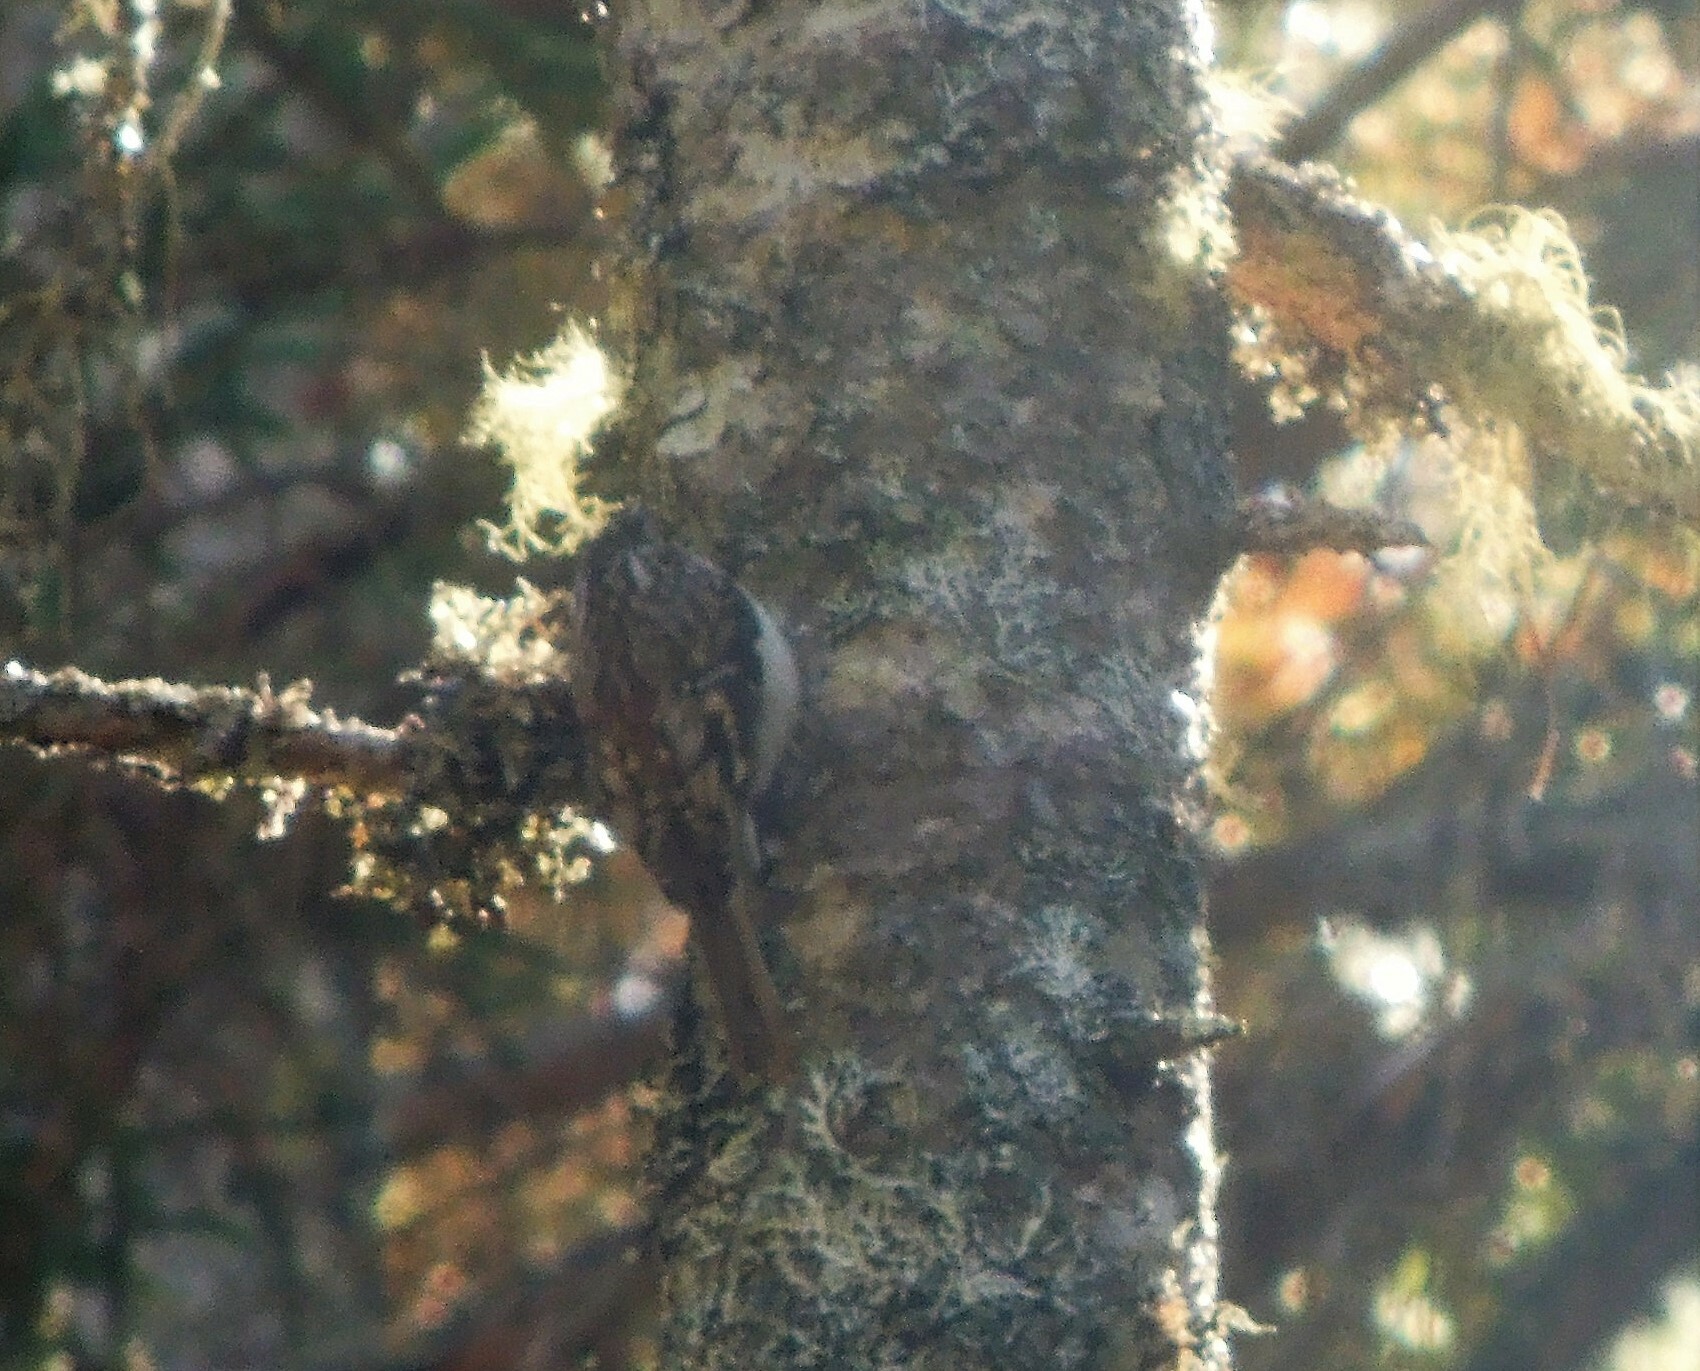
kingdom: Animalia
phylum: Chordata
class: Aves
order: Passeriformes
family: Certhiidae
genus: Certhia
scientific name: Certhia americana
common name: Brown creeper
